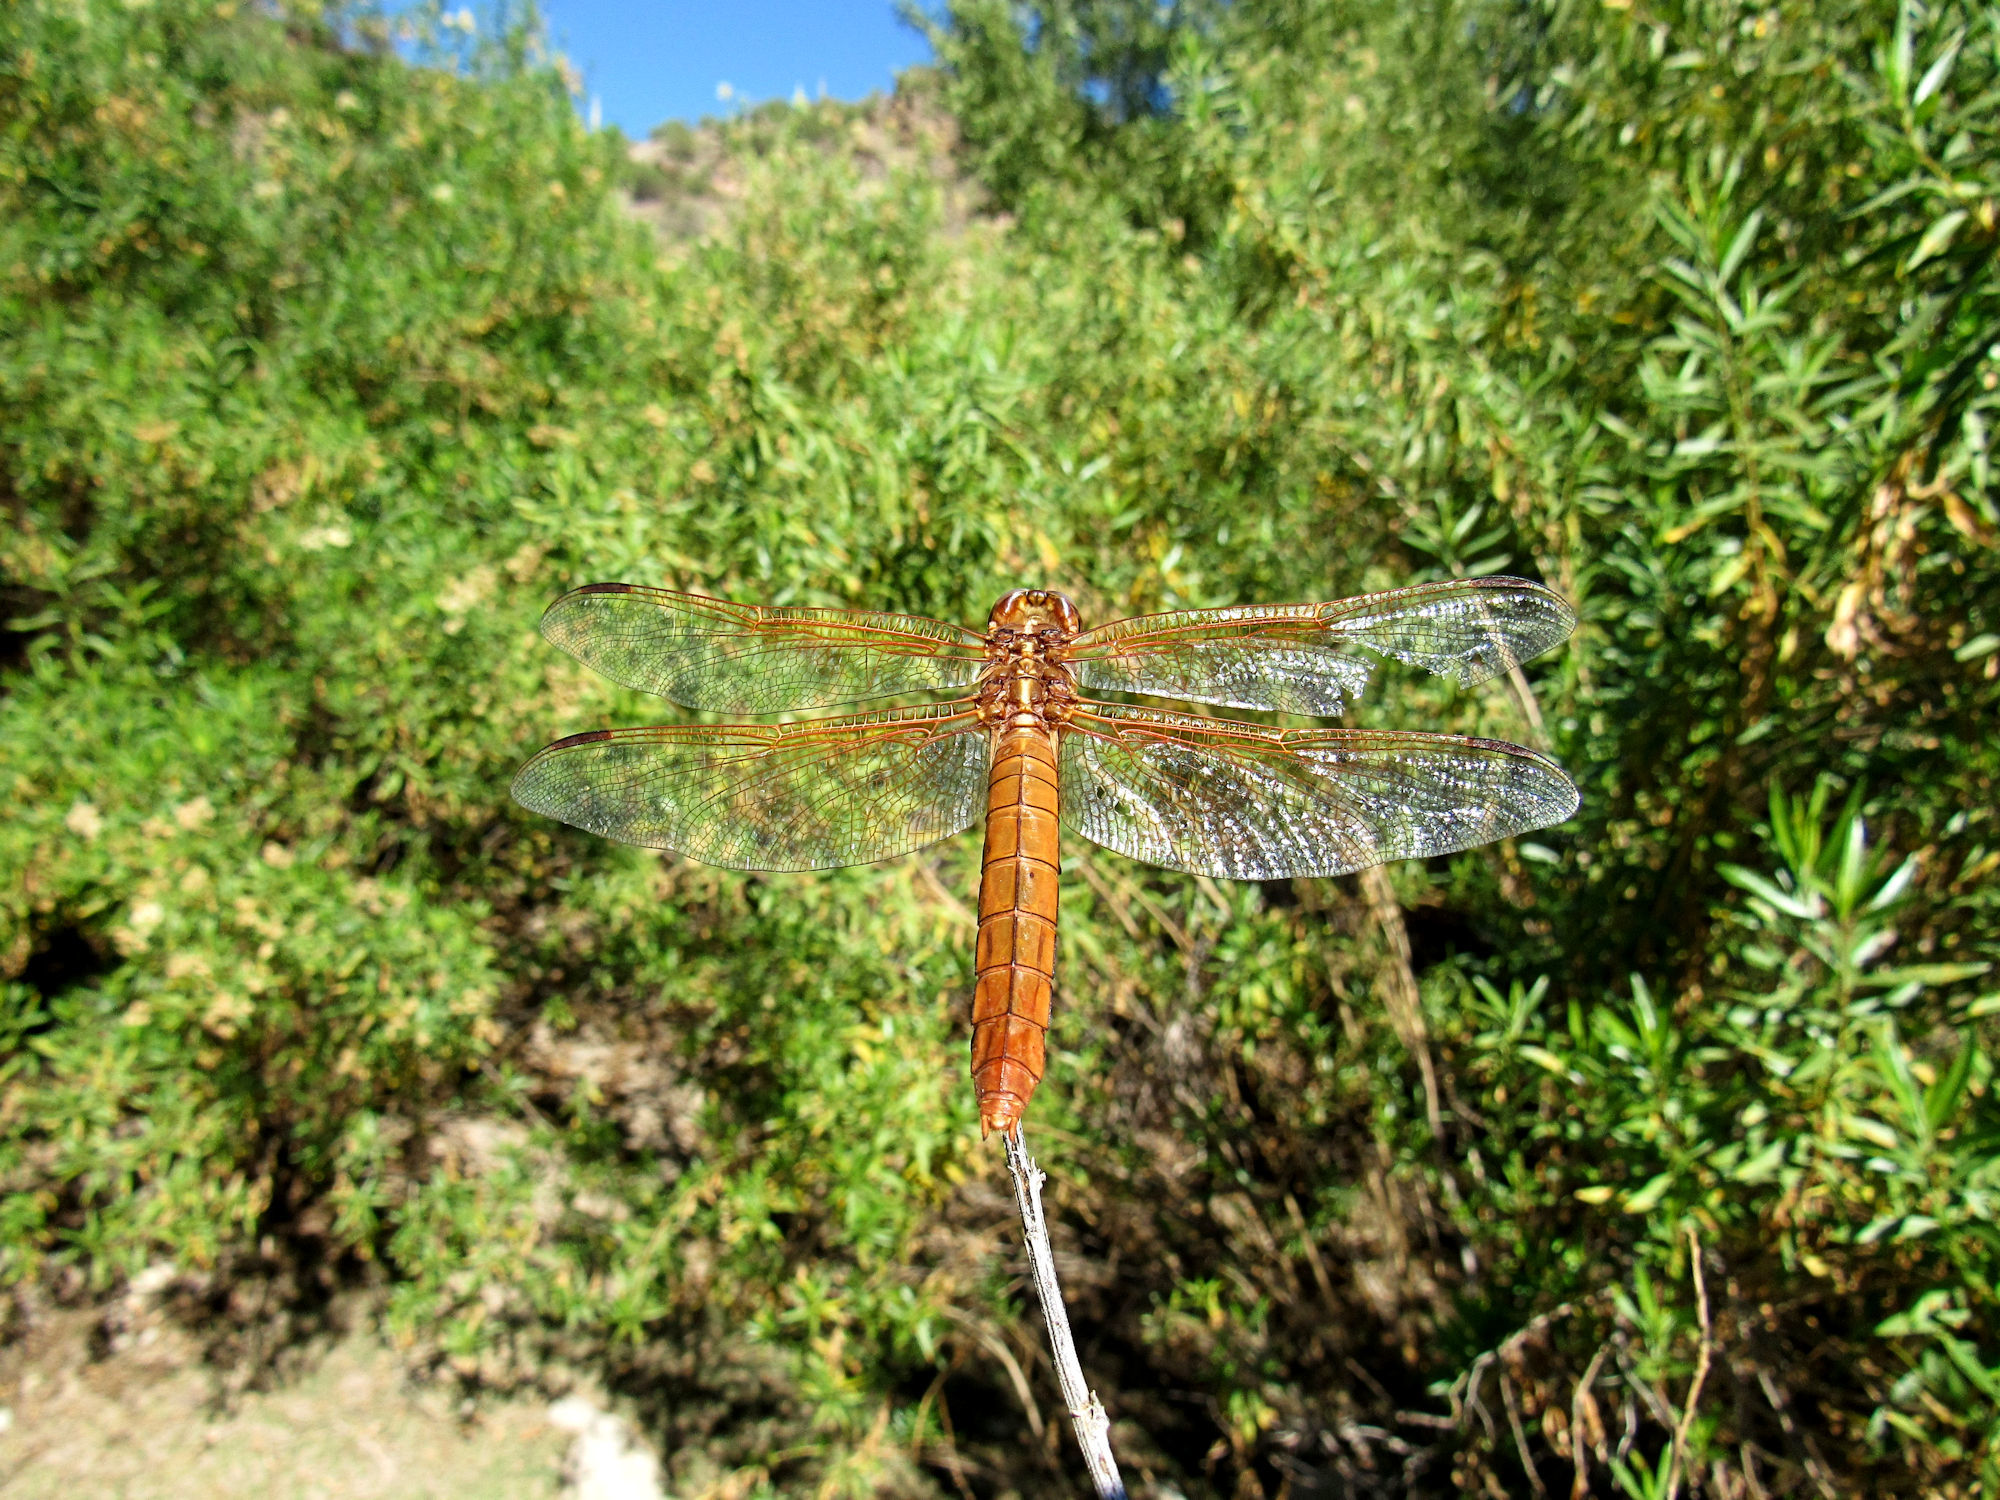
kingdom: Animalia
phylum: Arthropoda
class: Insecta
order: Odonata
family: Libellulidae
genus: Libellula
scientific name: Libellula saturata
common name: Flame skimmer
